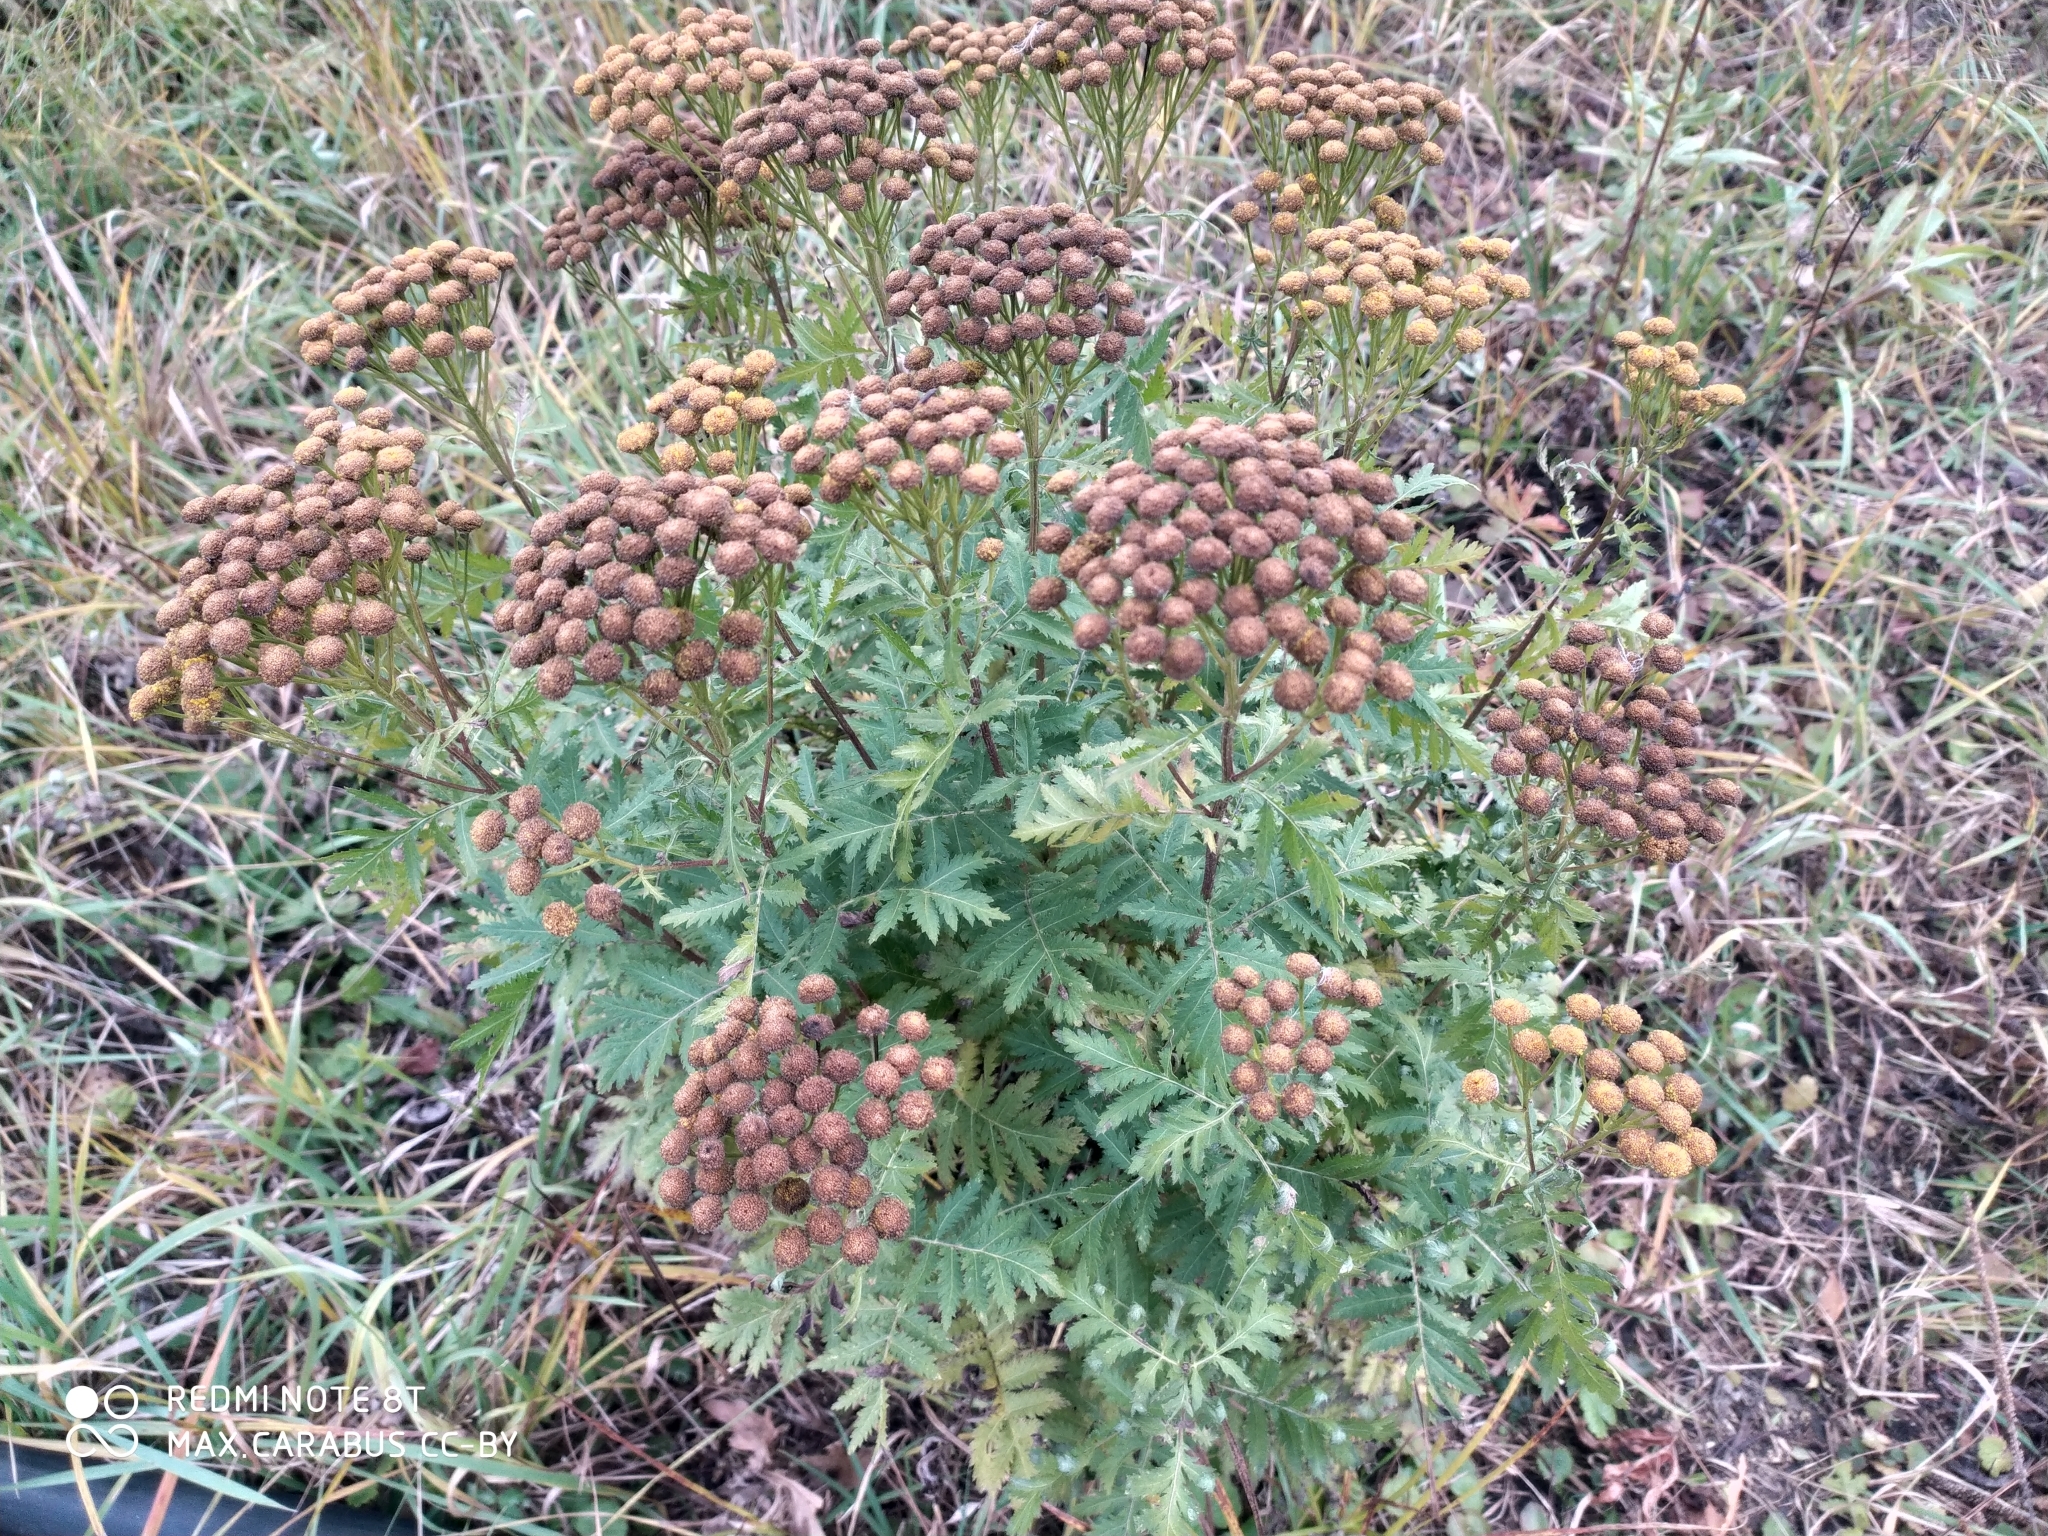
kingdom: Plantae
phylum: Tracheophyta
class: Magnoliopsida
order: Asterales
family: Asteraceae
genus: Tanacetum
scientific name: Tanacetum vulgare
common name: Common tansy
